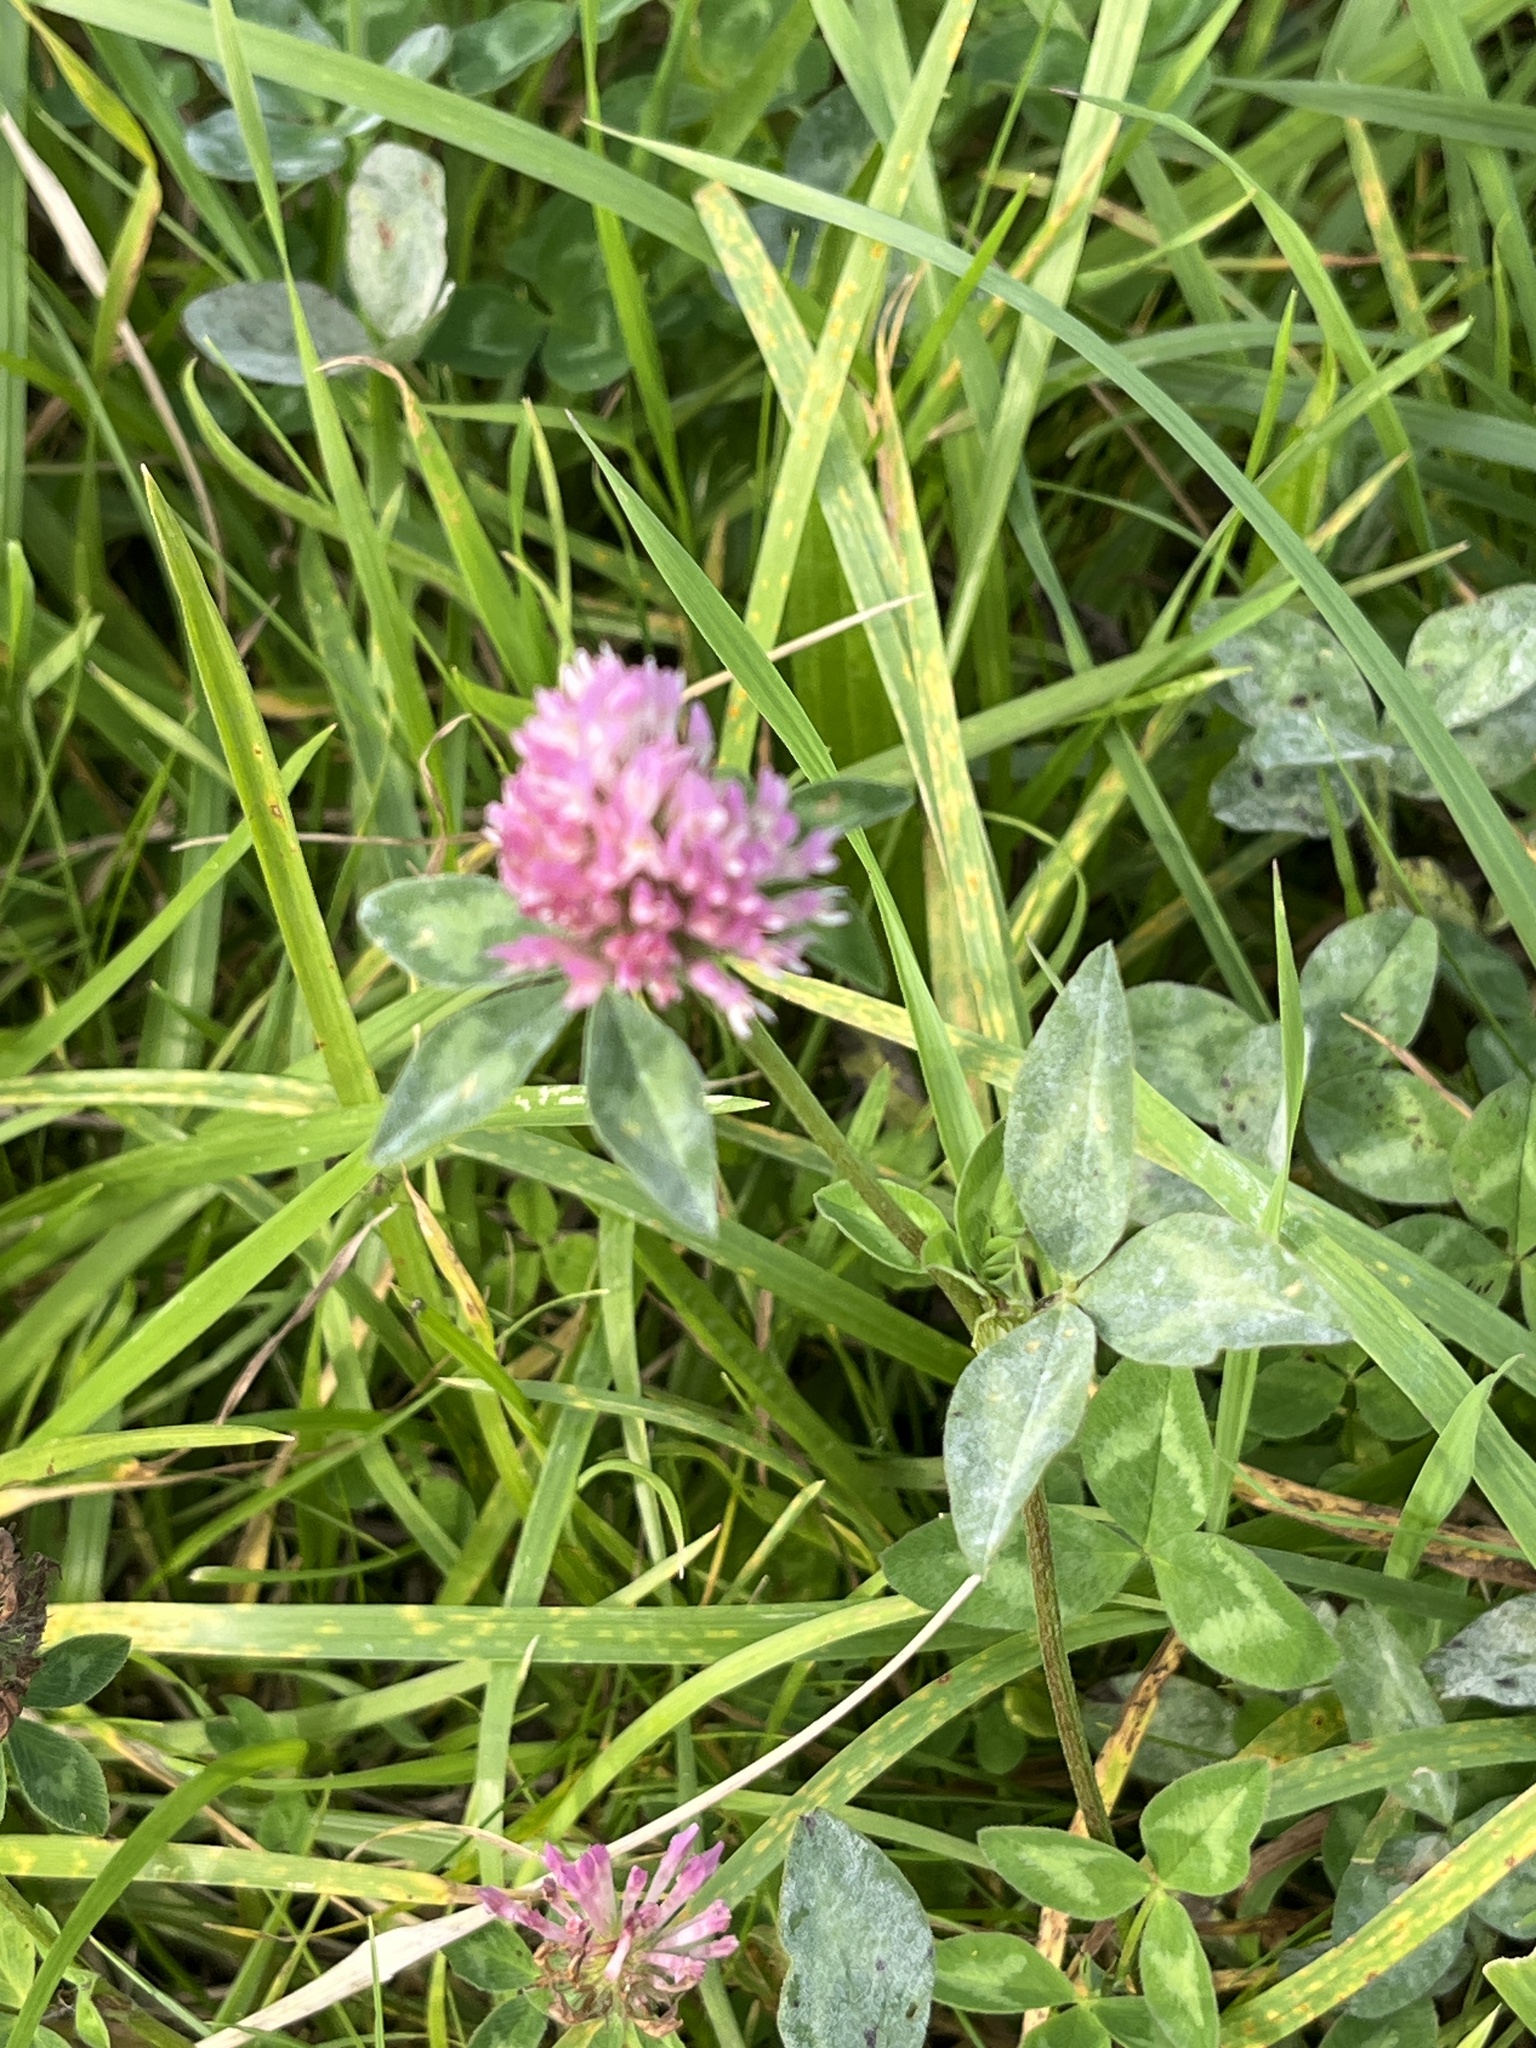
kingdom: Plantae
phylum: Tracheophyta
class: Magnoliopsida
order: Fabales
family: Fabaceae
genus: Trifolium
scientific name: Trifolium pratense
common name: Red clover
